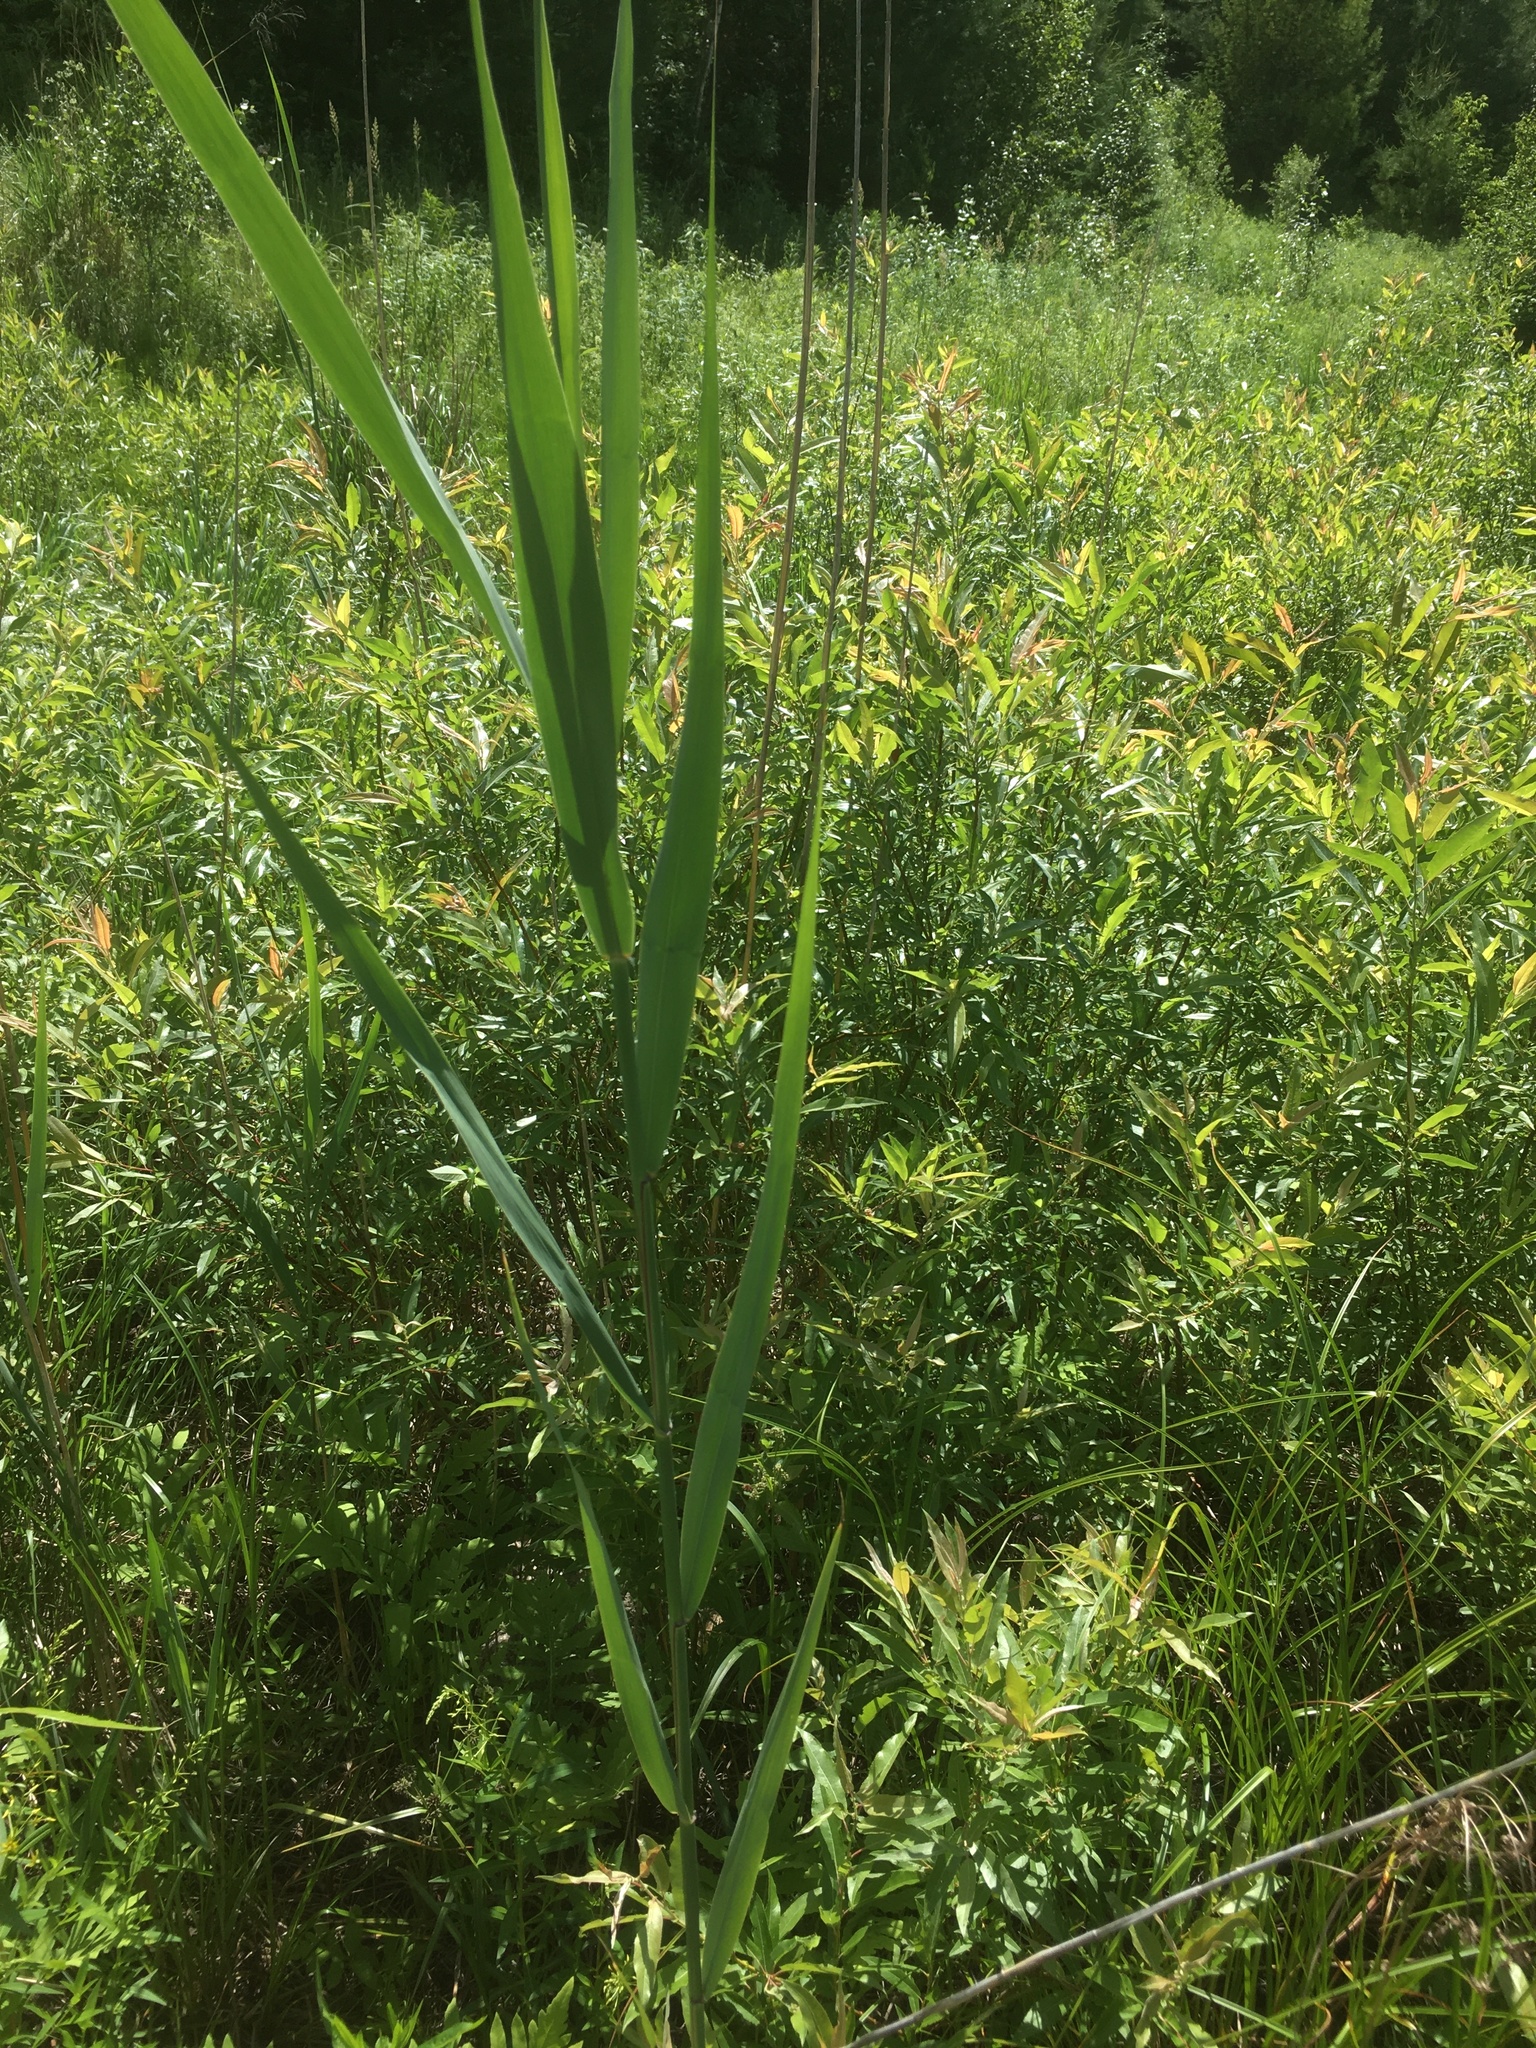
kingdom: Plantae
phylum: Tracheophyta
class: Liliopsida
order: Poales
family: Poaceae
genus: Phragmites
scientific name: Phragmites australis
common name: Common reed
